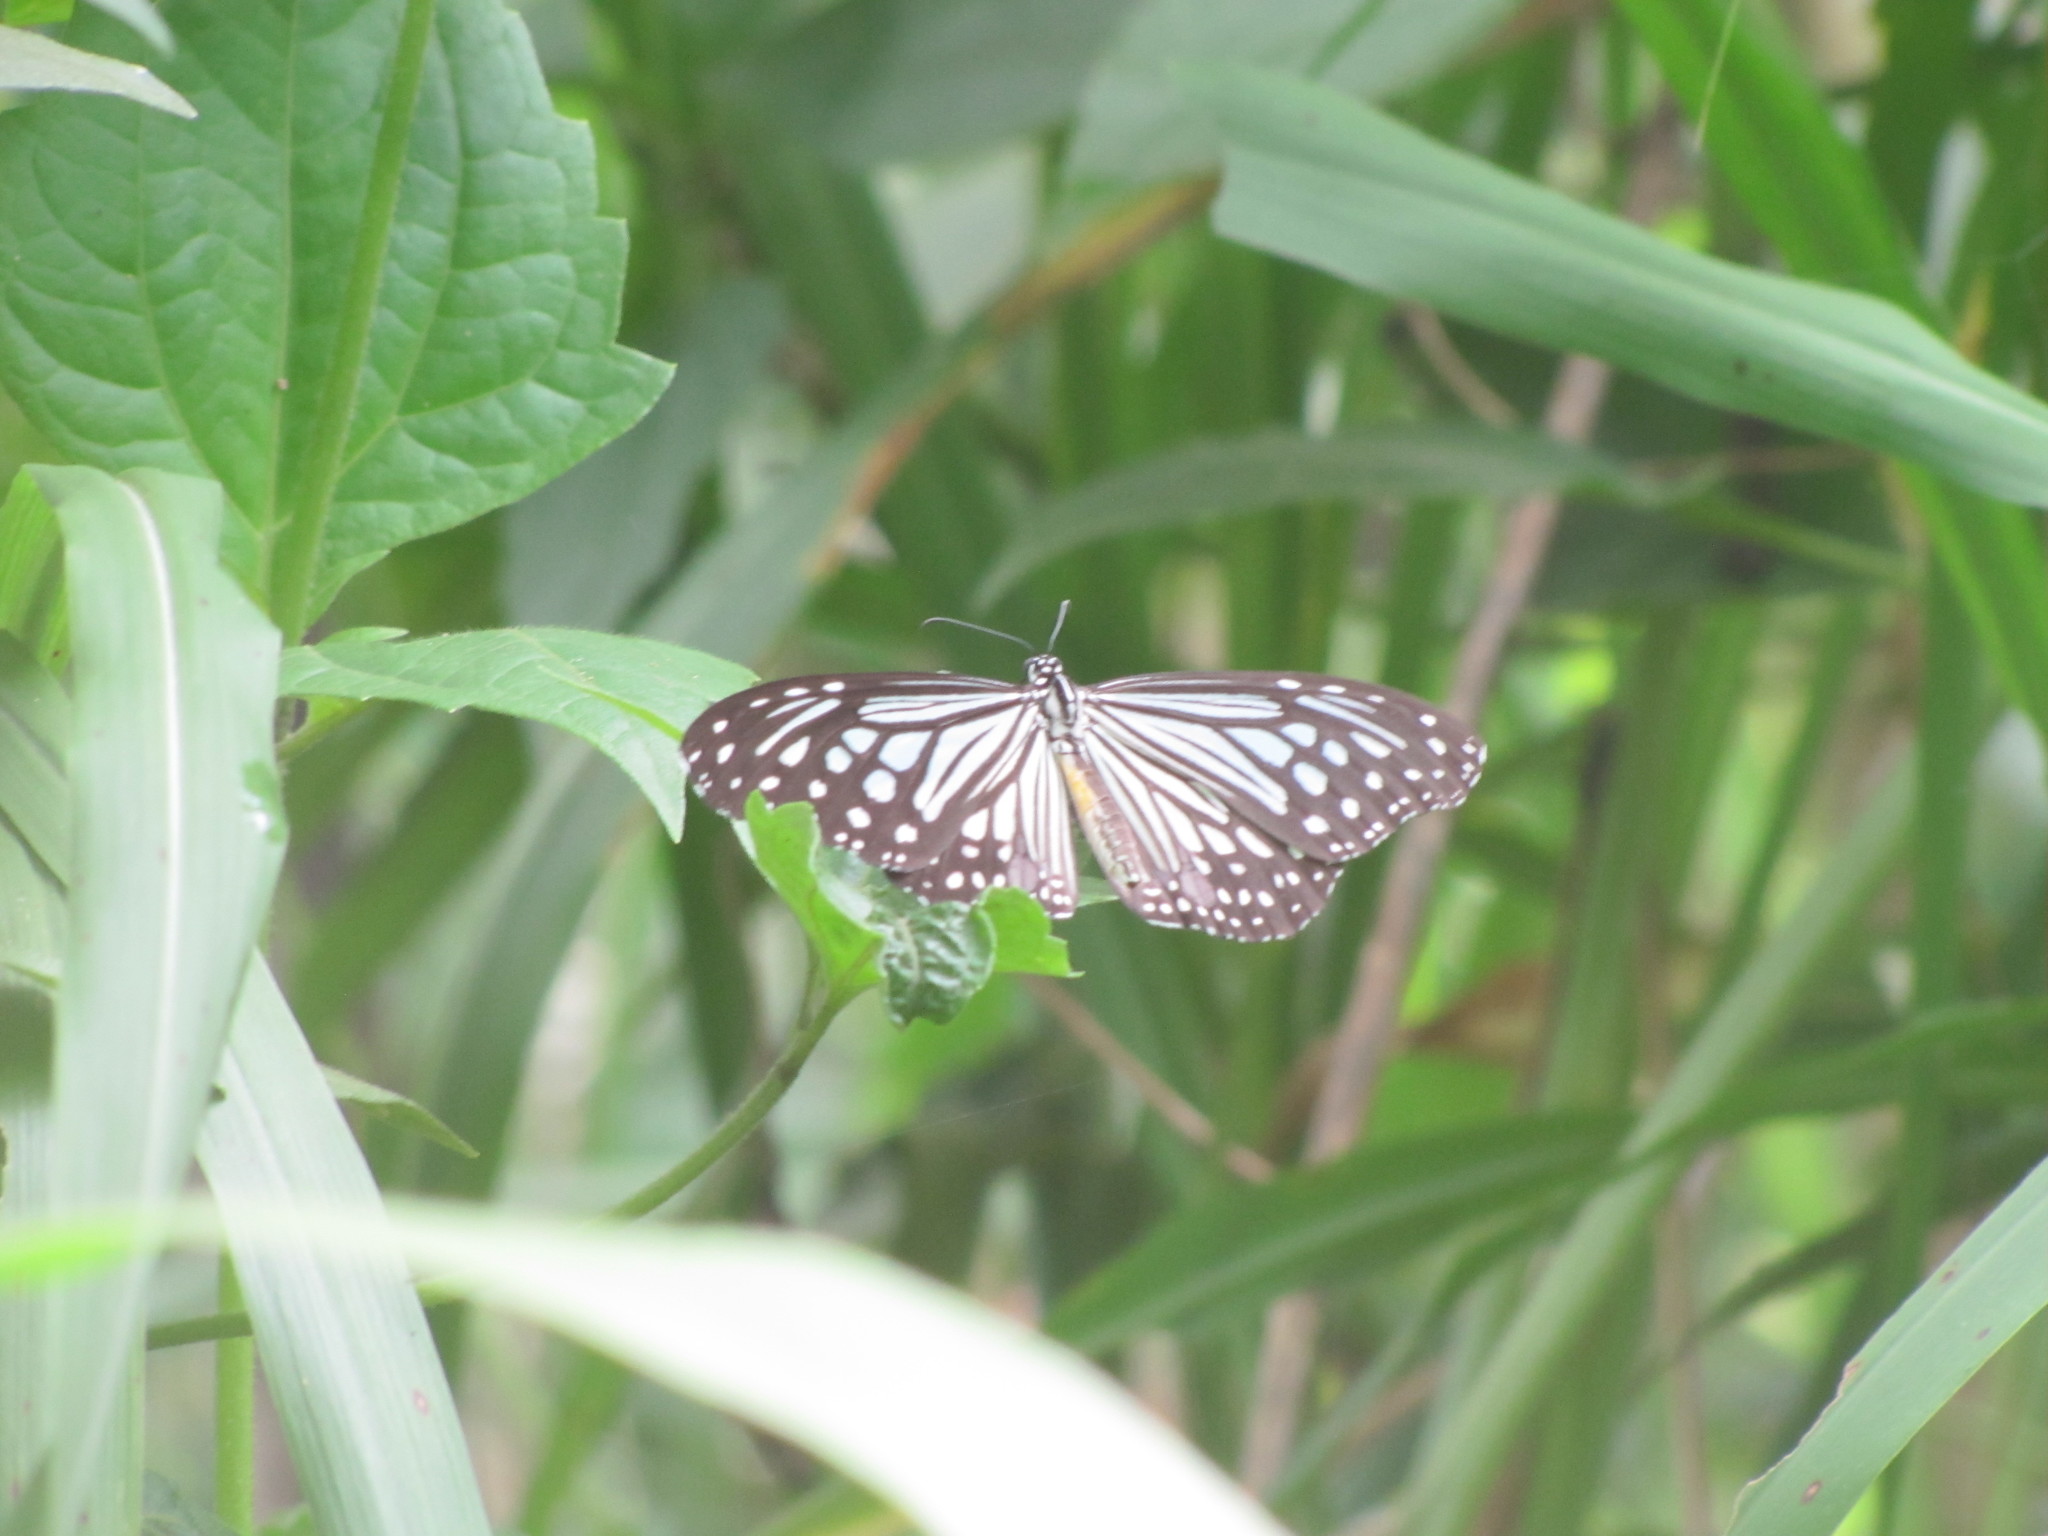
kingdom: Animalia
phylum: Arthropoda
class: Insecta
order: Lepidoptera
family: Nymphalidae
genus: Parantica
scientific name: Parantica aglea
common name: Glassy tiger
